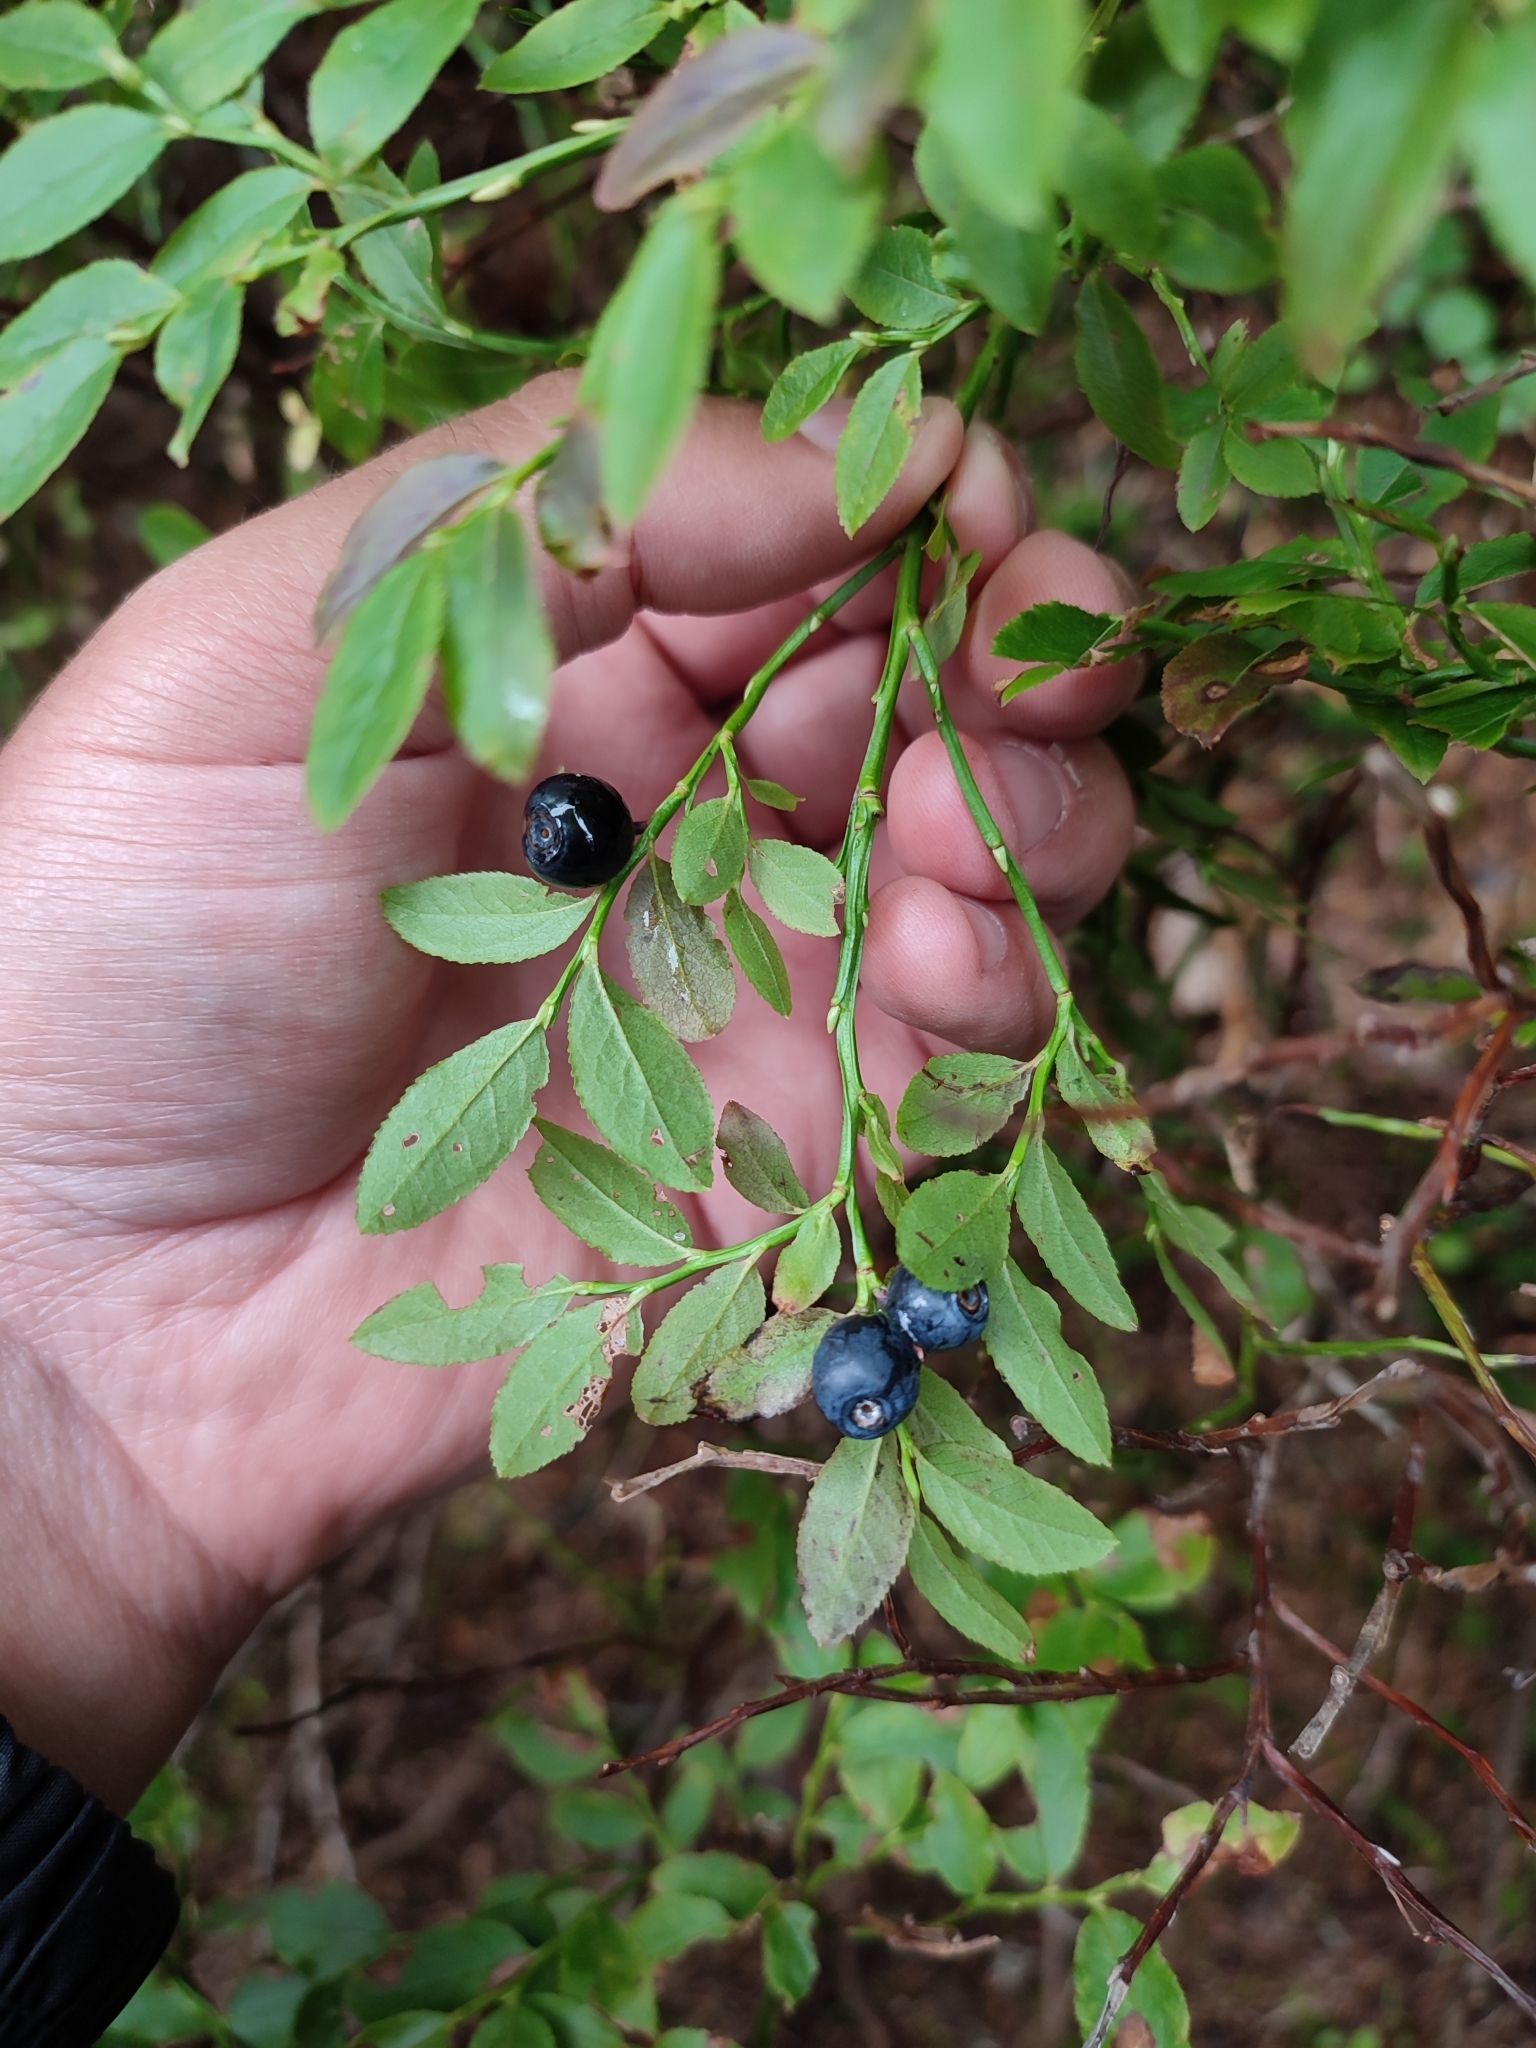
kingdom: Plantae
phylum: Tracheophyta
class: Magnoliopsida
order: Ericales
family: Ericaceae
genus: Vaccinium
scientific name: Vaccinium myrtillus
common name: Bilberry
